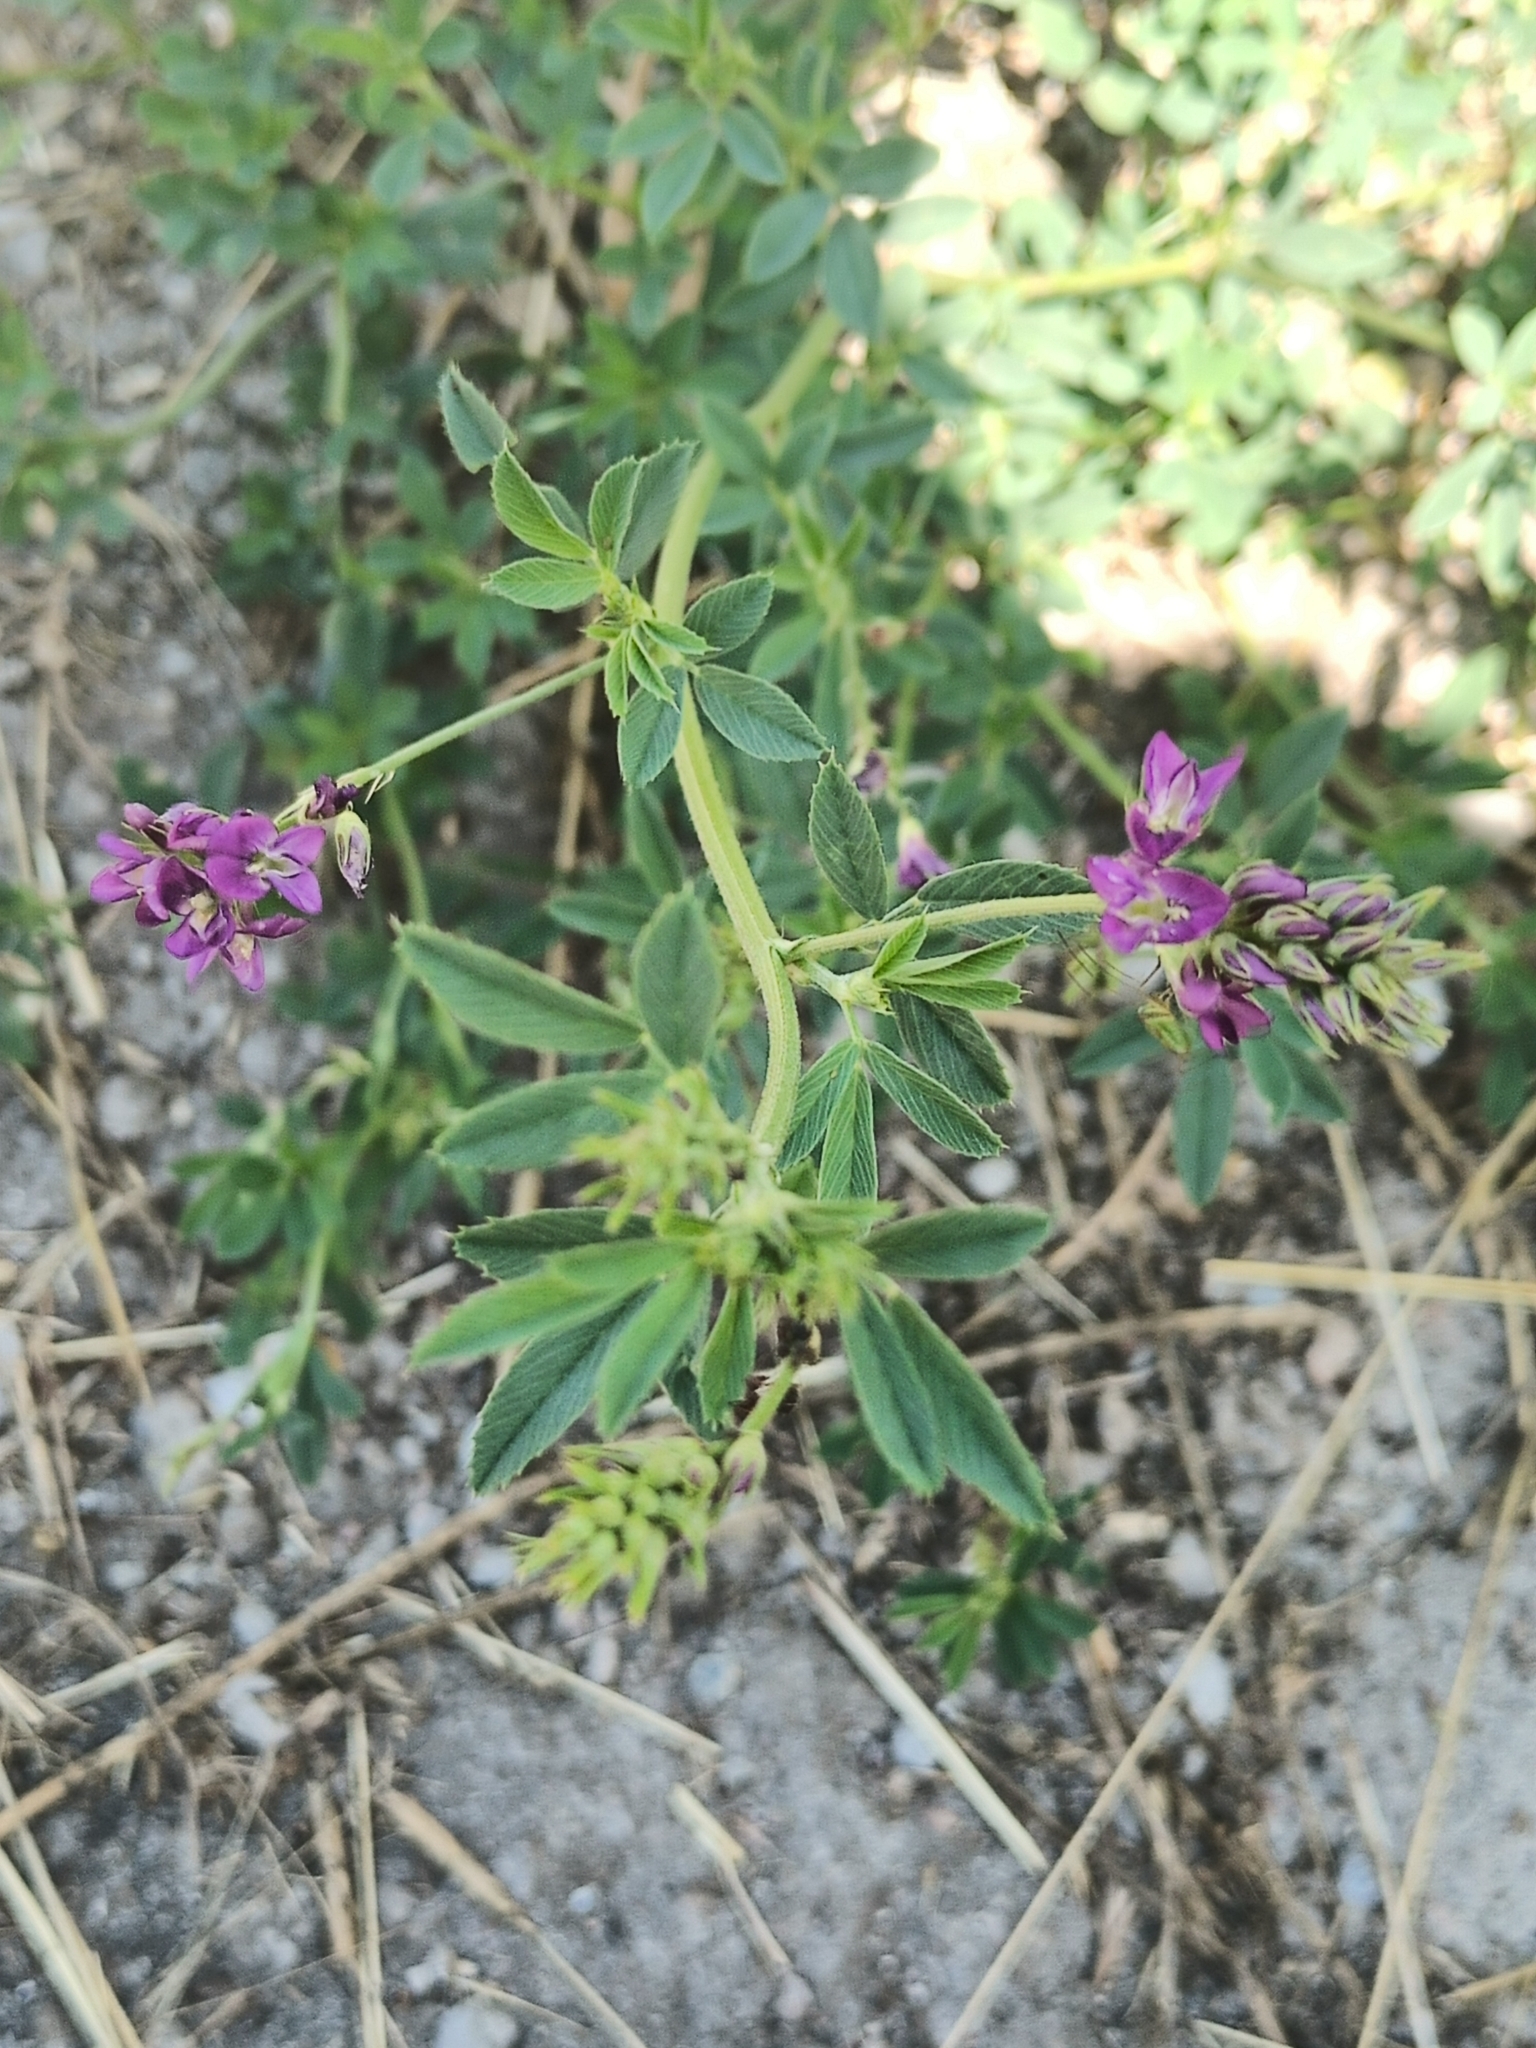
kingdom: Plantae
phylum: Tracheophyta
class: Magnoliopsida
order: Fabales
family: Fabaceae
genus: Medicago
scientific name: Medicago sativa
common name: Alfalfa
